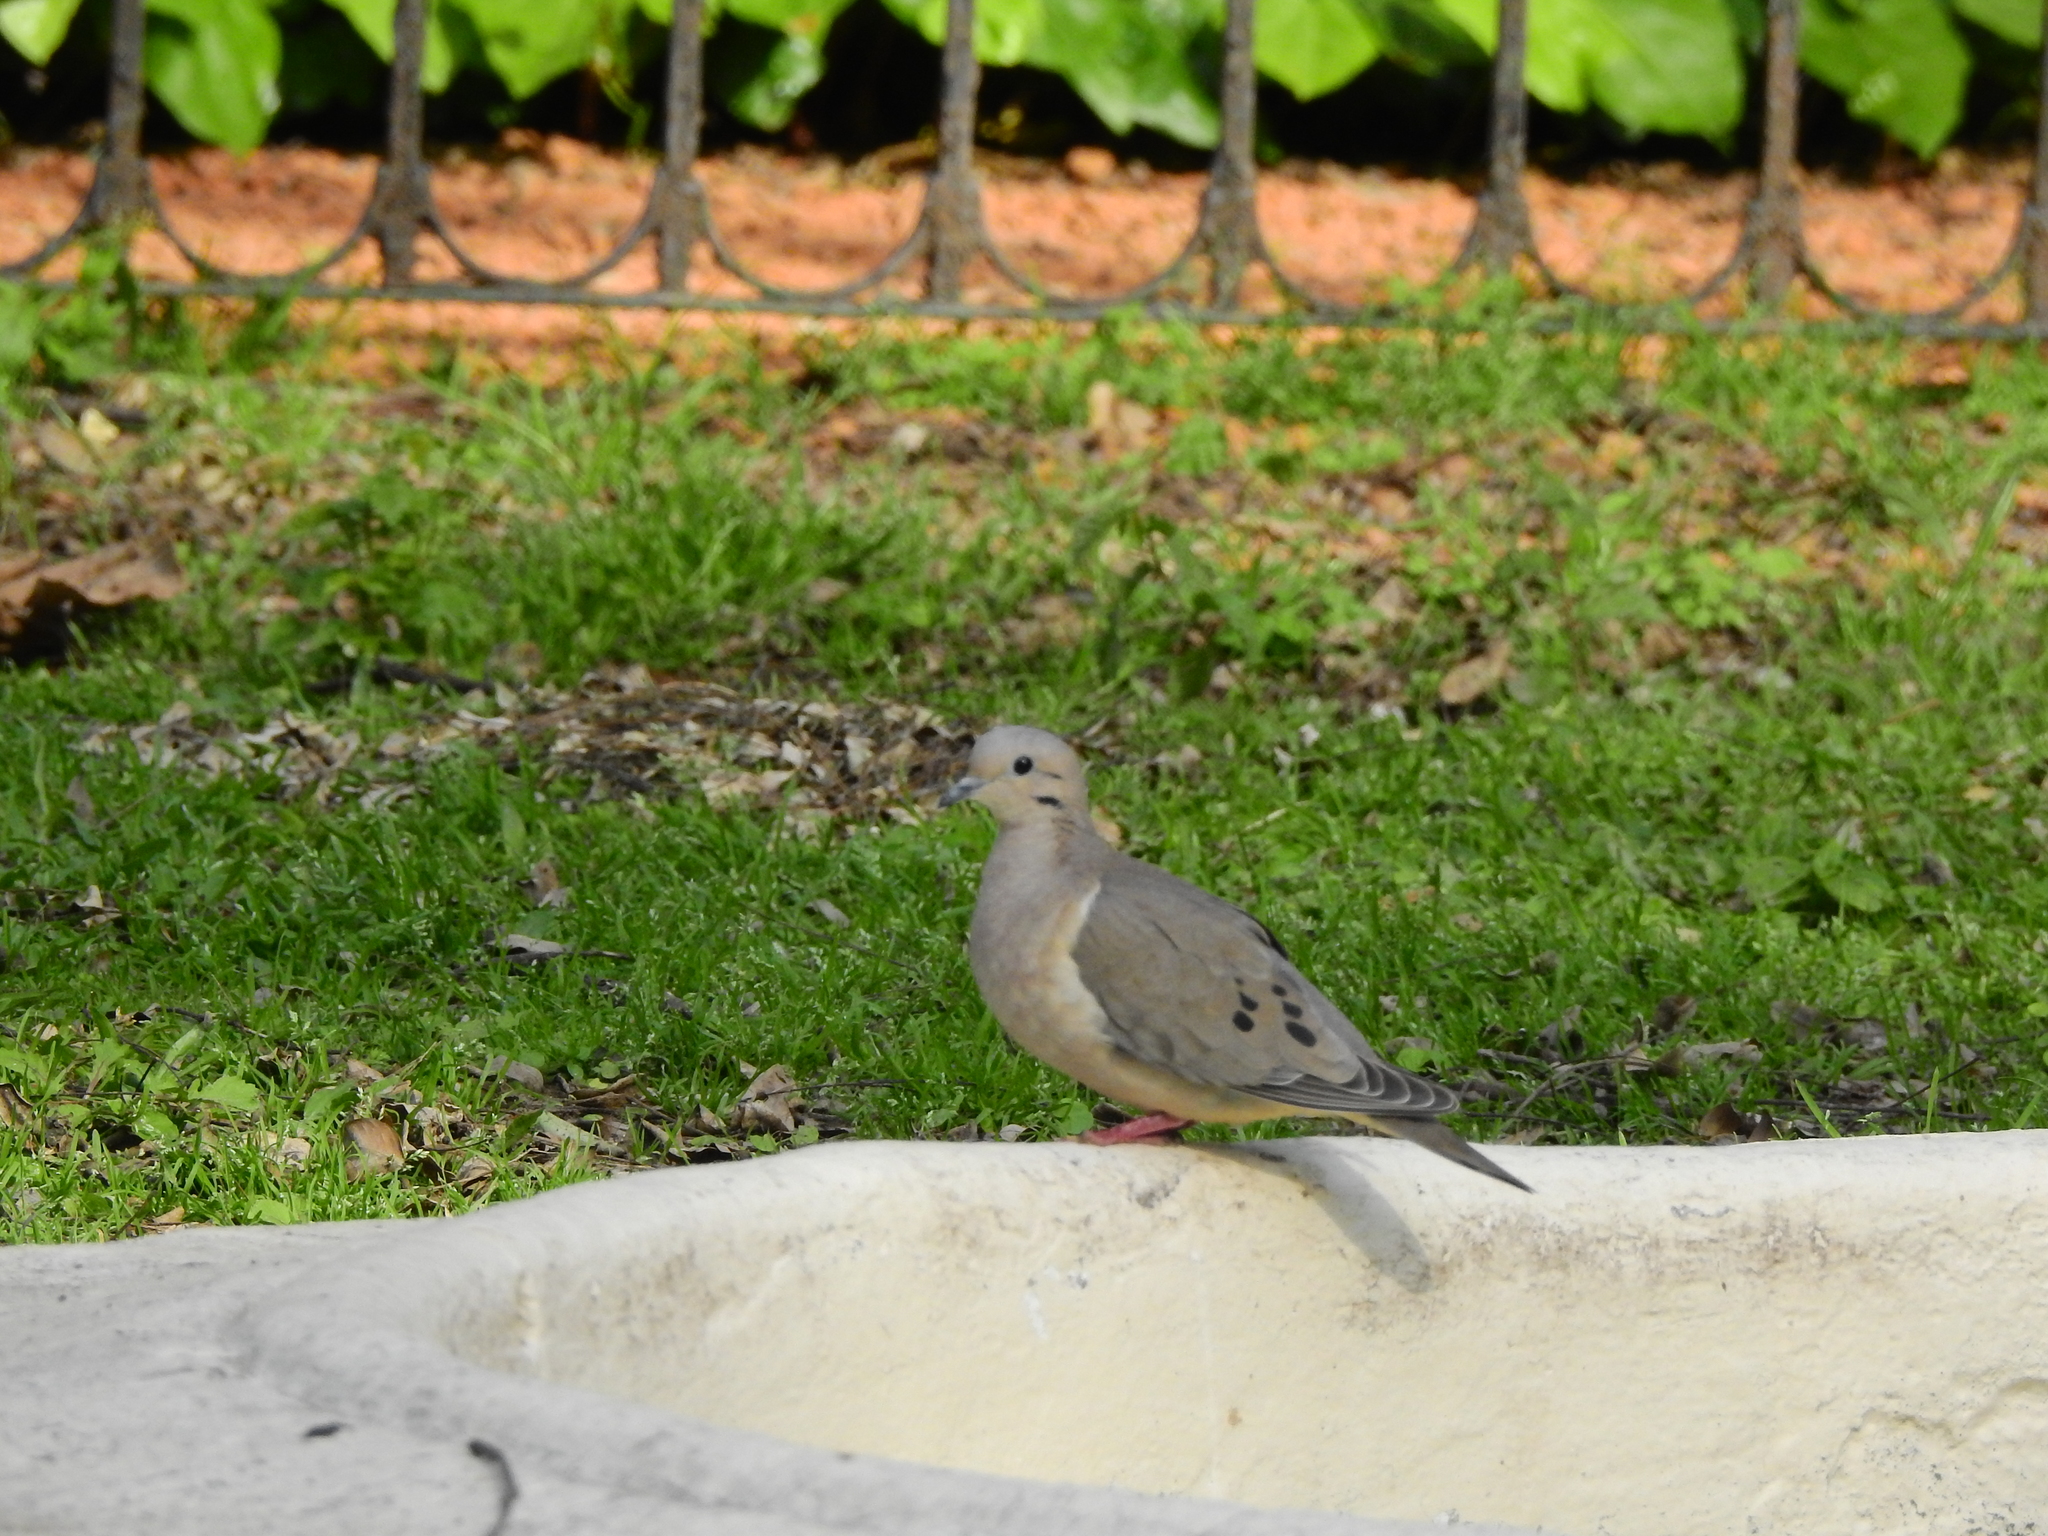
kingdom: Animalia
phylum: Chordata
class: Aves
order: Columbiformes
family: Columbidae
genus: Zenaida
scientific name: Zenaida auriculata
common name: Eared dove
